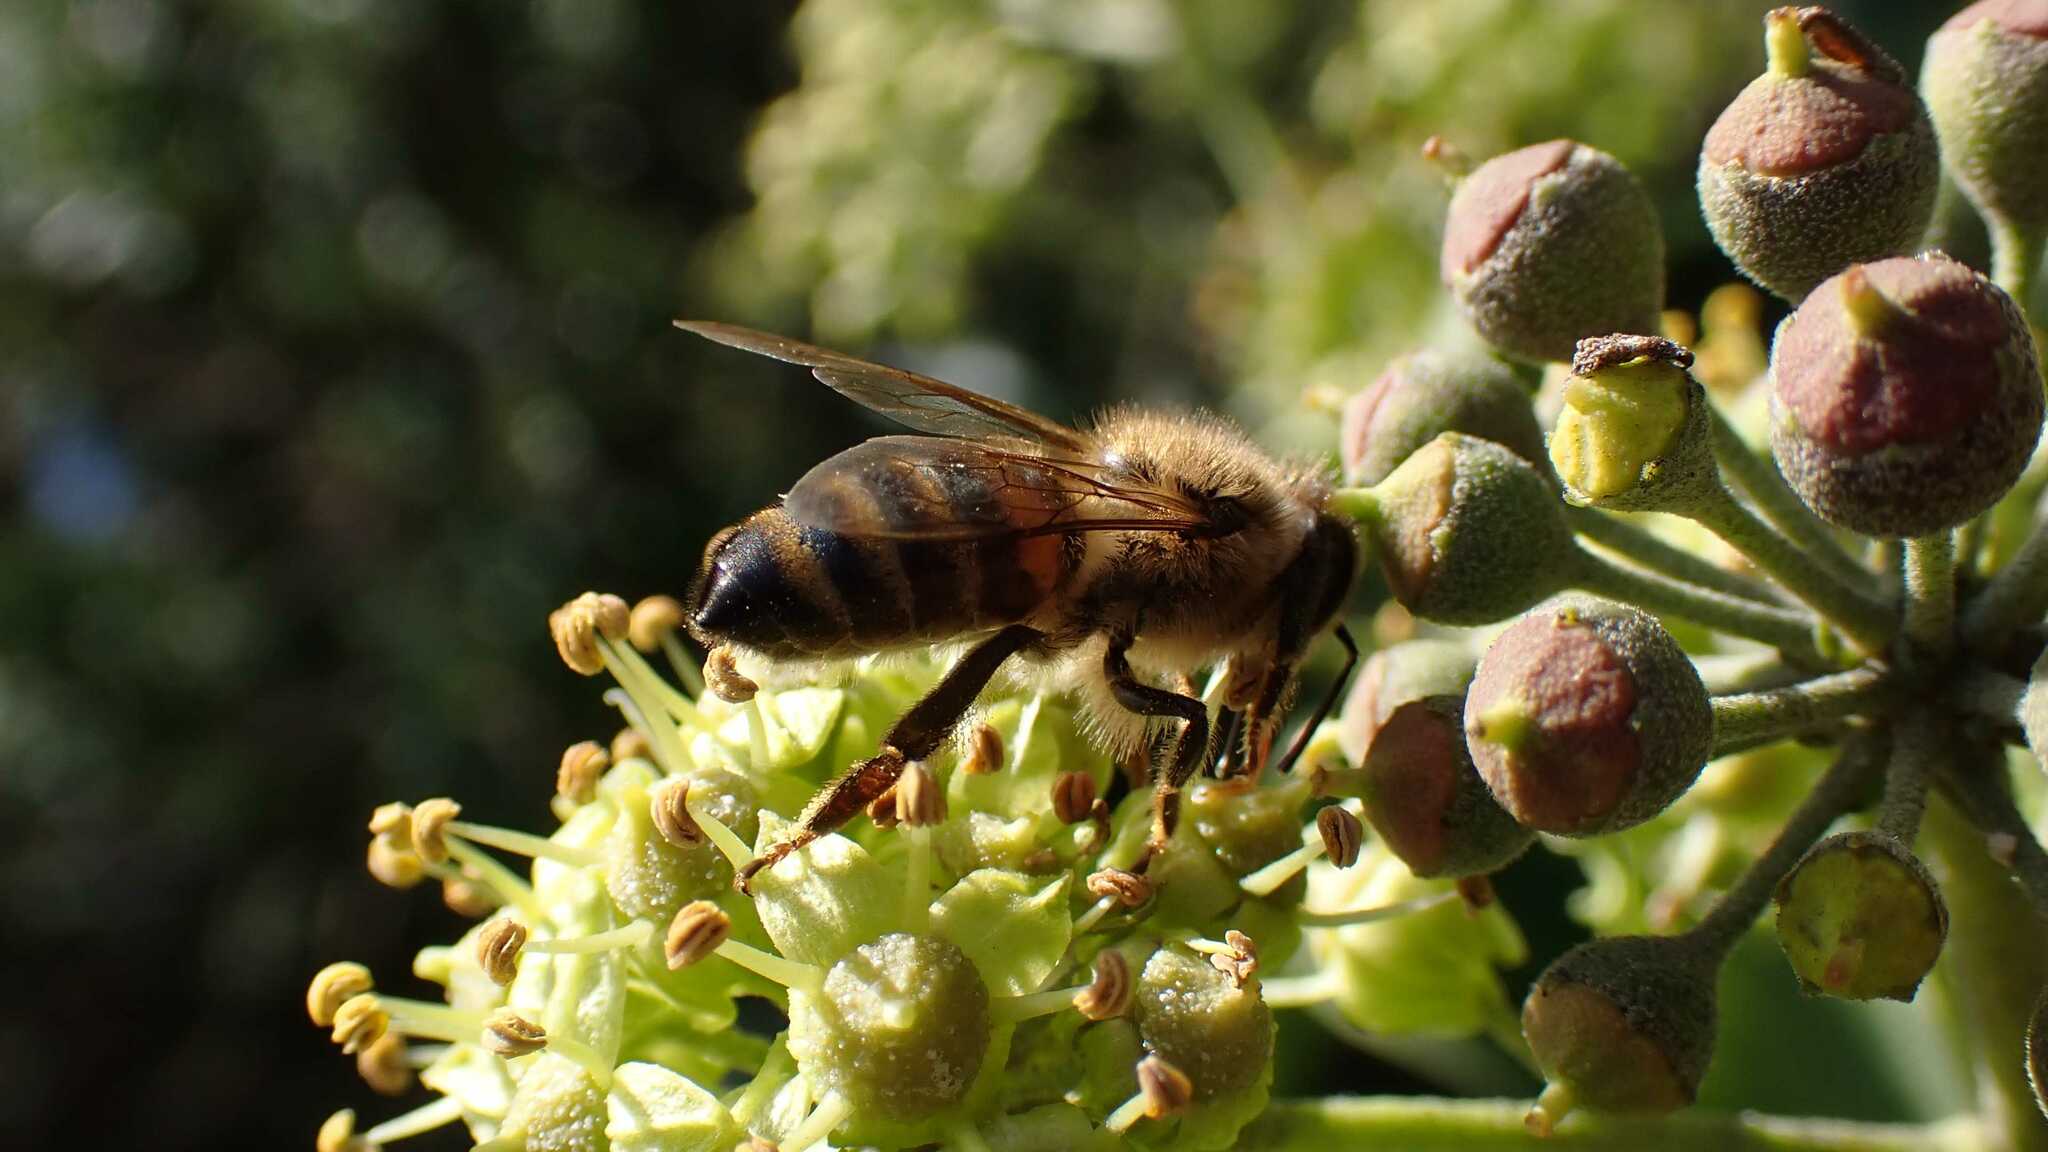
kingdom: Animalia
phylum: Arthropoda
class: Insecta
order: Hymenoptera
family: Apidae
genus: Apis
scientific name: Apis mellifera
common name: Honey bee
